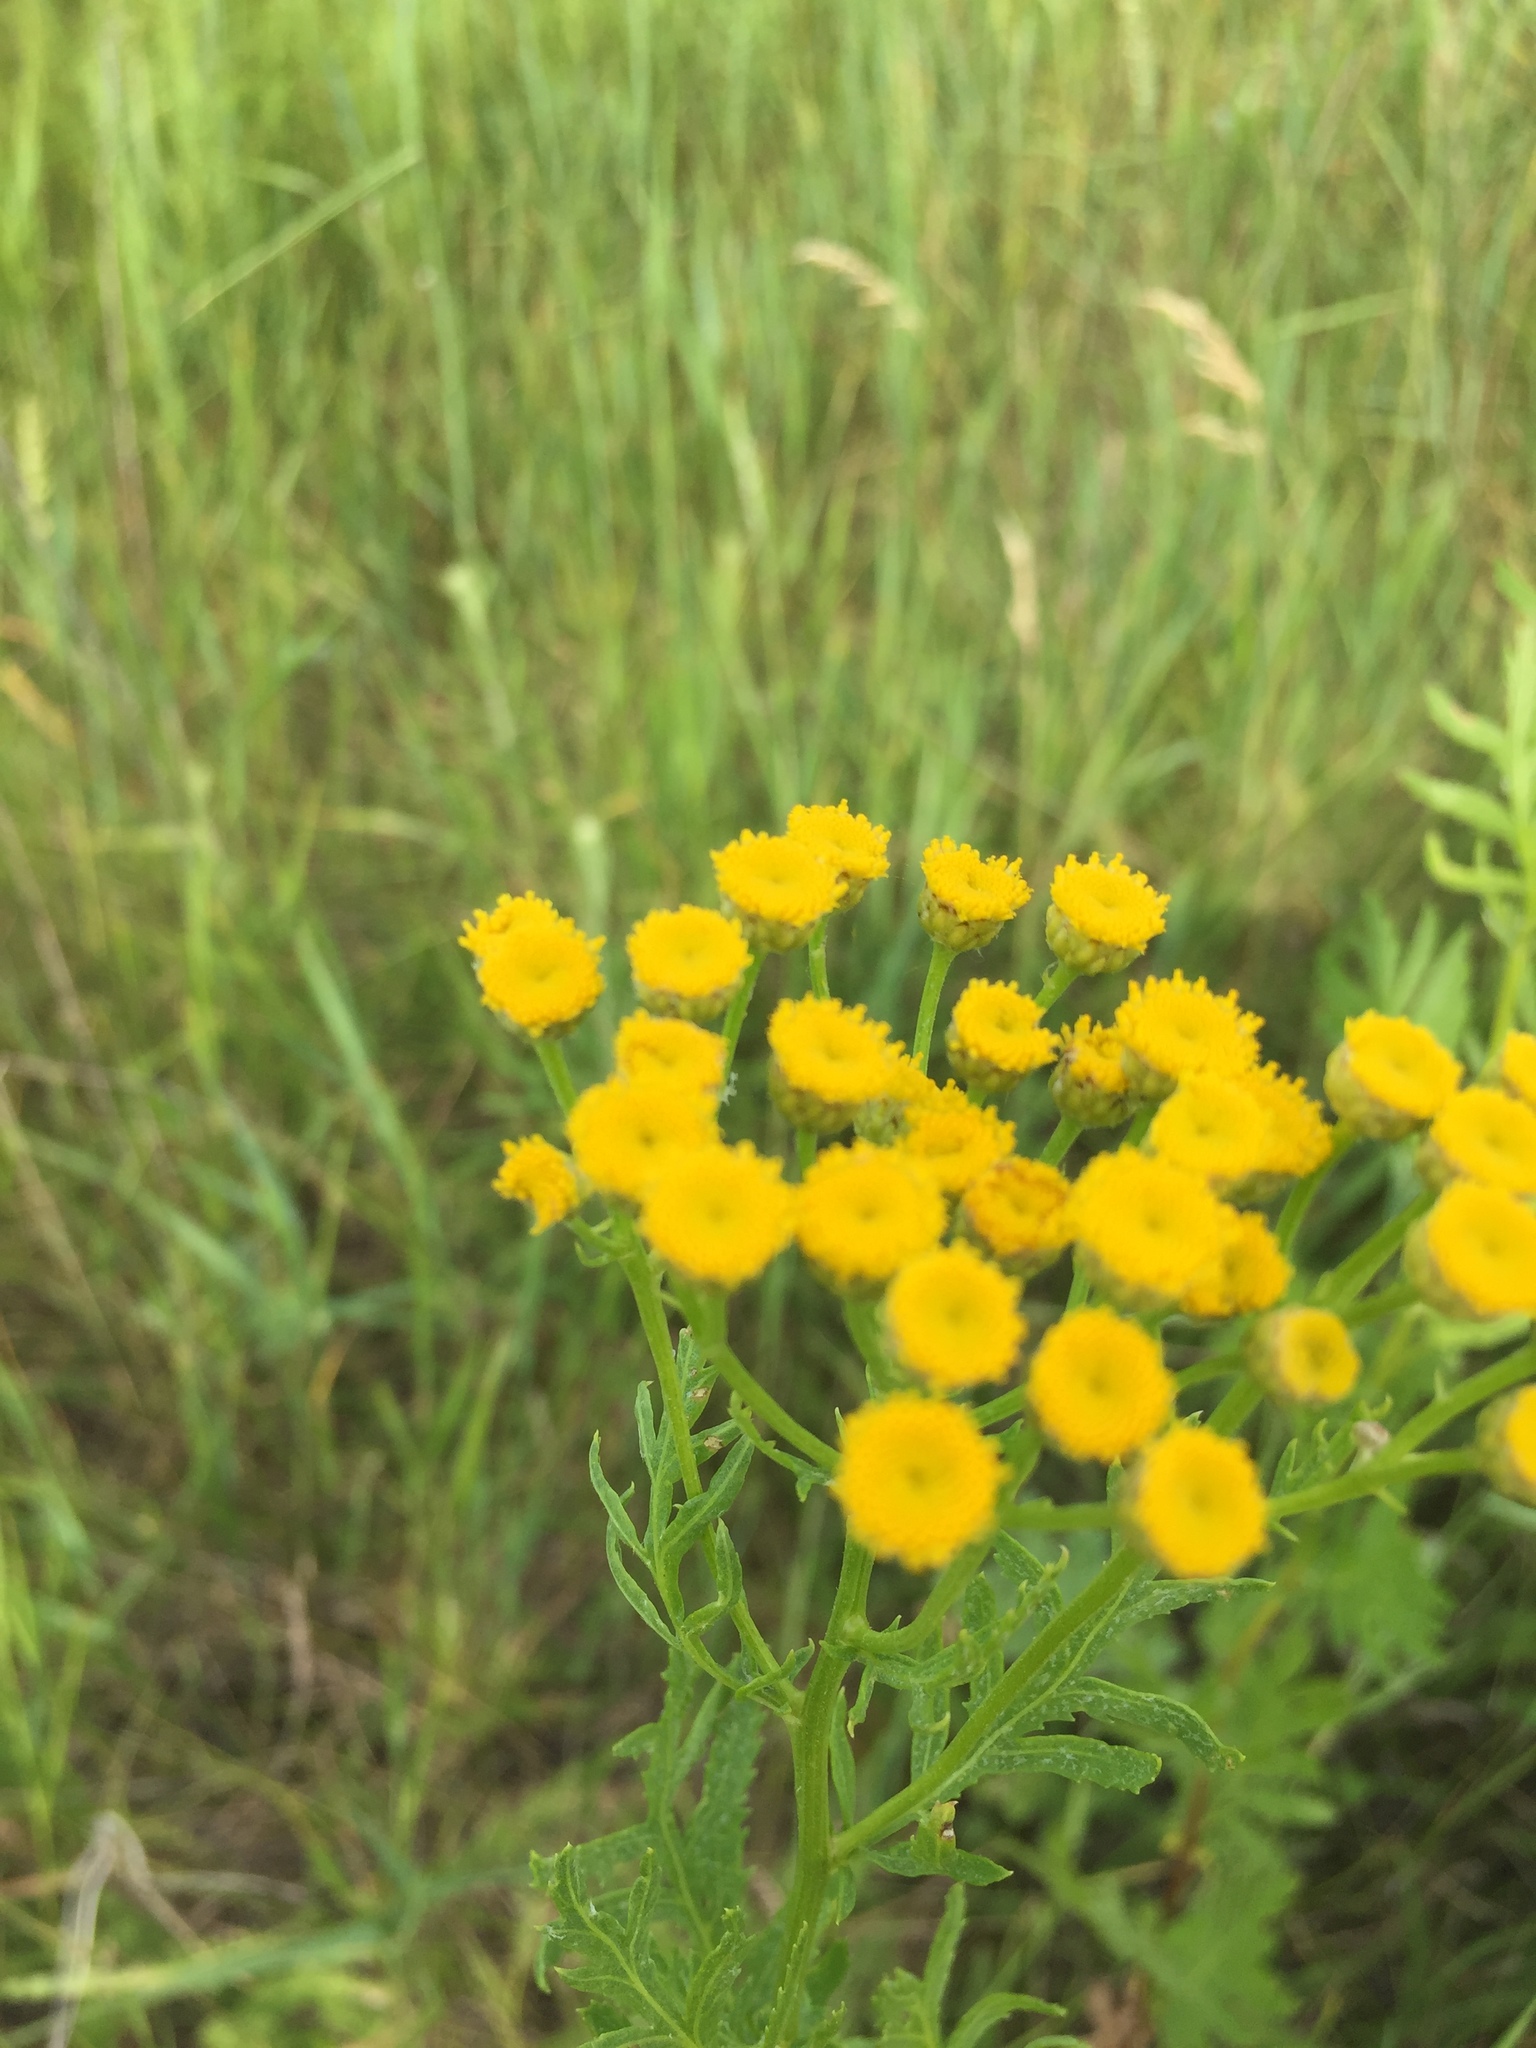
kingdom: Plantae
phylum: Tracheophyta
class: Magnoliopsida
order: Asterales
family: Asteraceae
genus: Tanacetum
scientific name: Tanacetum vulgare
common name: Common tansy
